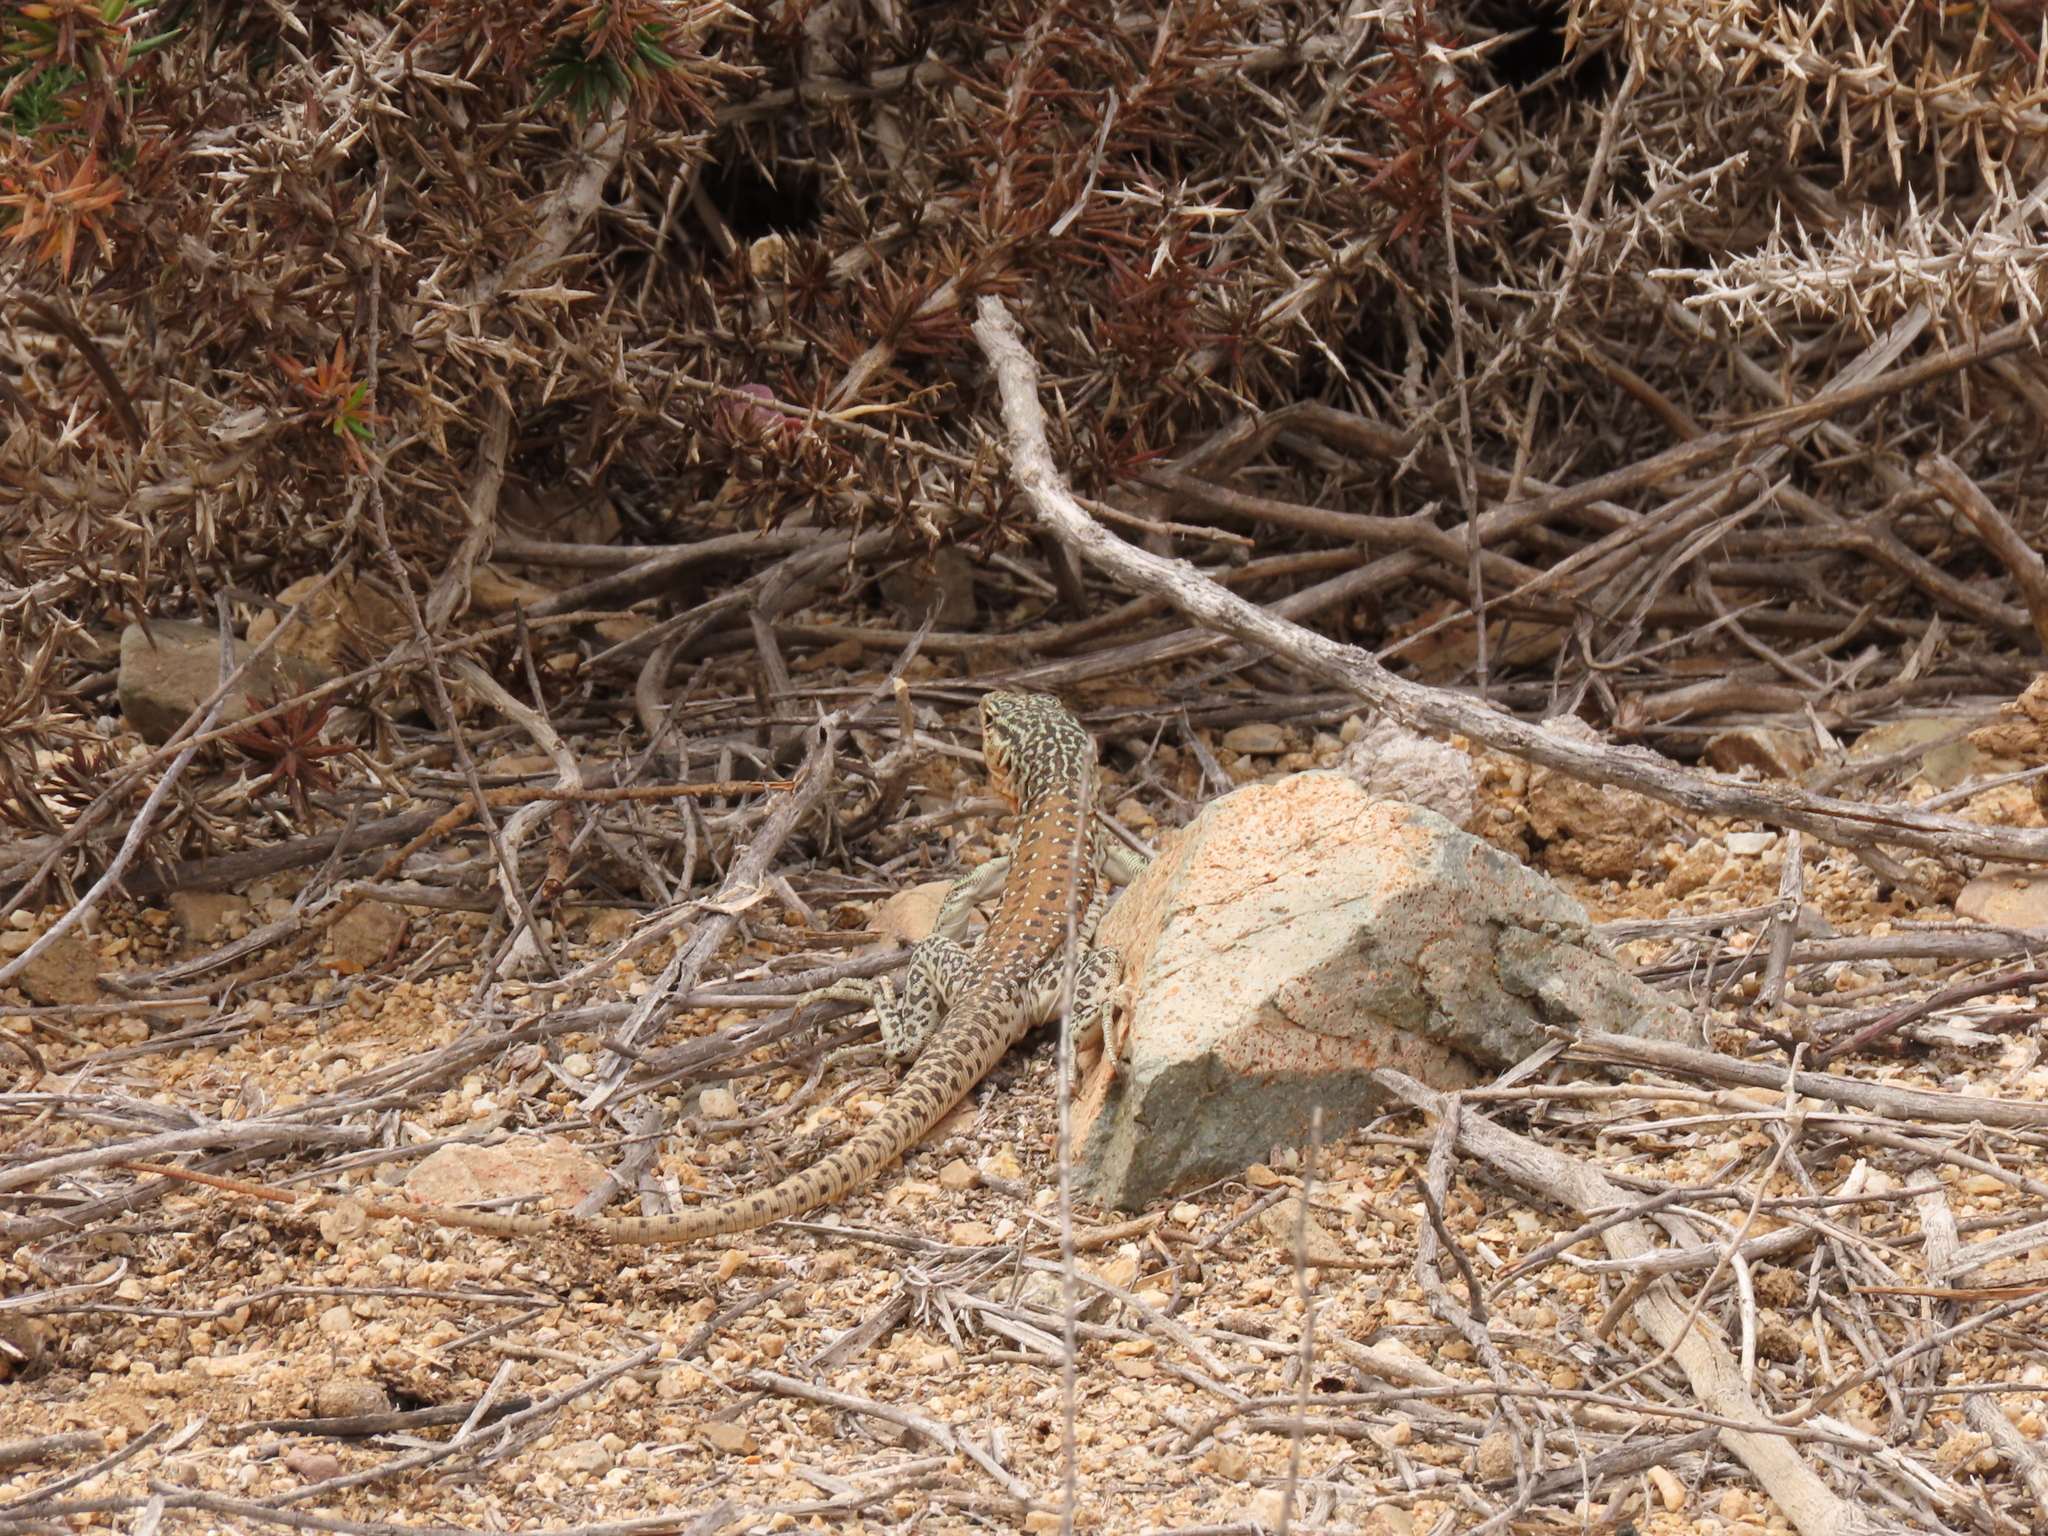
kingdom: Animalia
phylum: Chordata
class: Squamata
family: Teiidae
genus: Callopistes
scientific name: Callopistes maculatus
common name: Spotted false monitor
